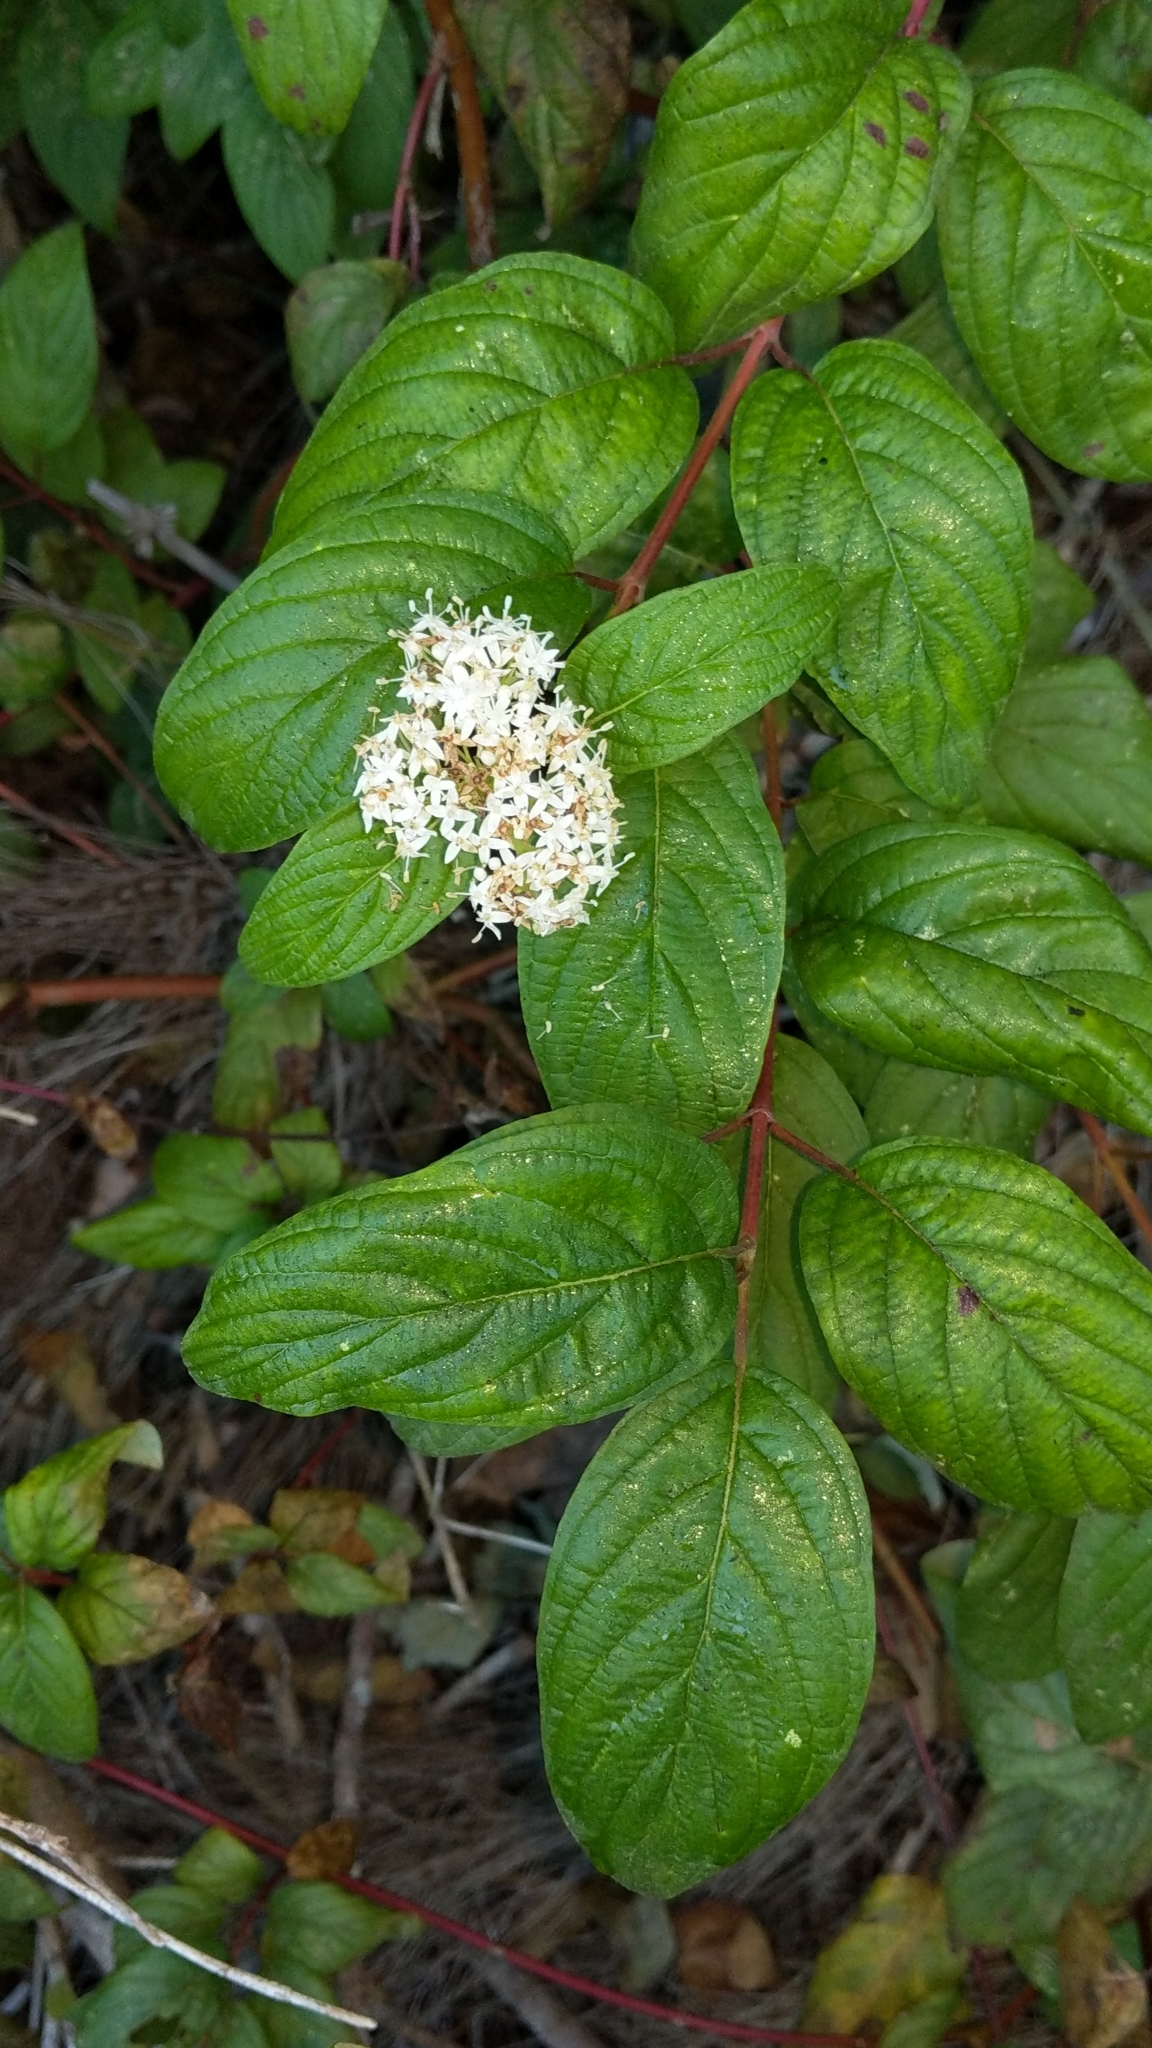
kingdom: Plantae
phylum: Tracheophyta
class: Magnoliopsida
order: Cornales
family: Cornaceae
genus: Cornus
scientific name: Cornus sericea
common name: Red-osier dogwood
